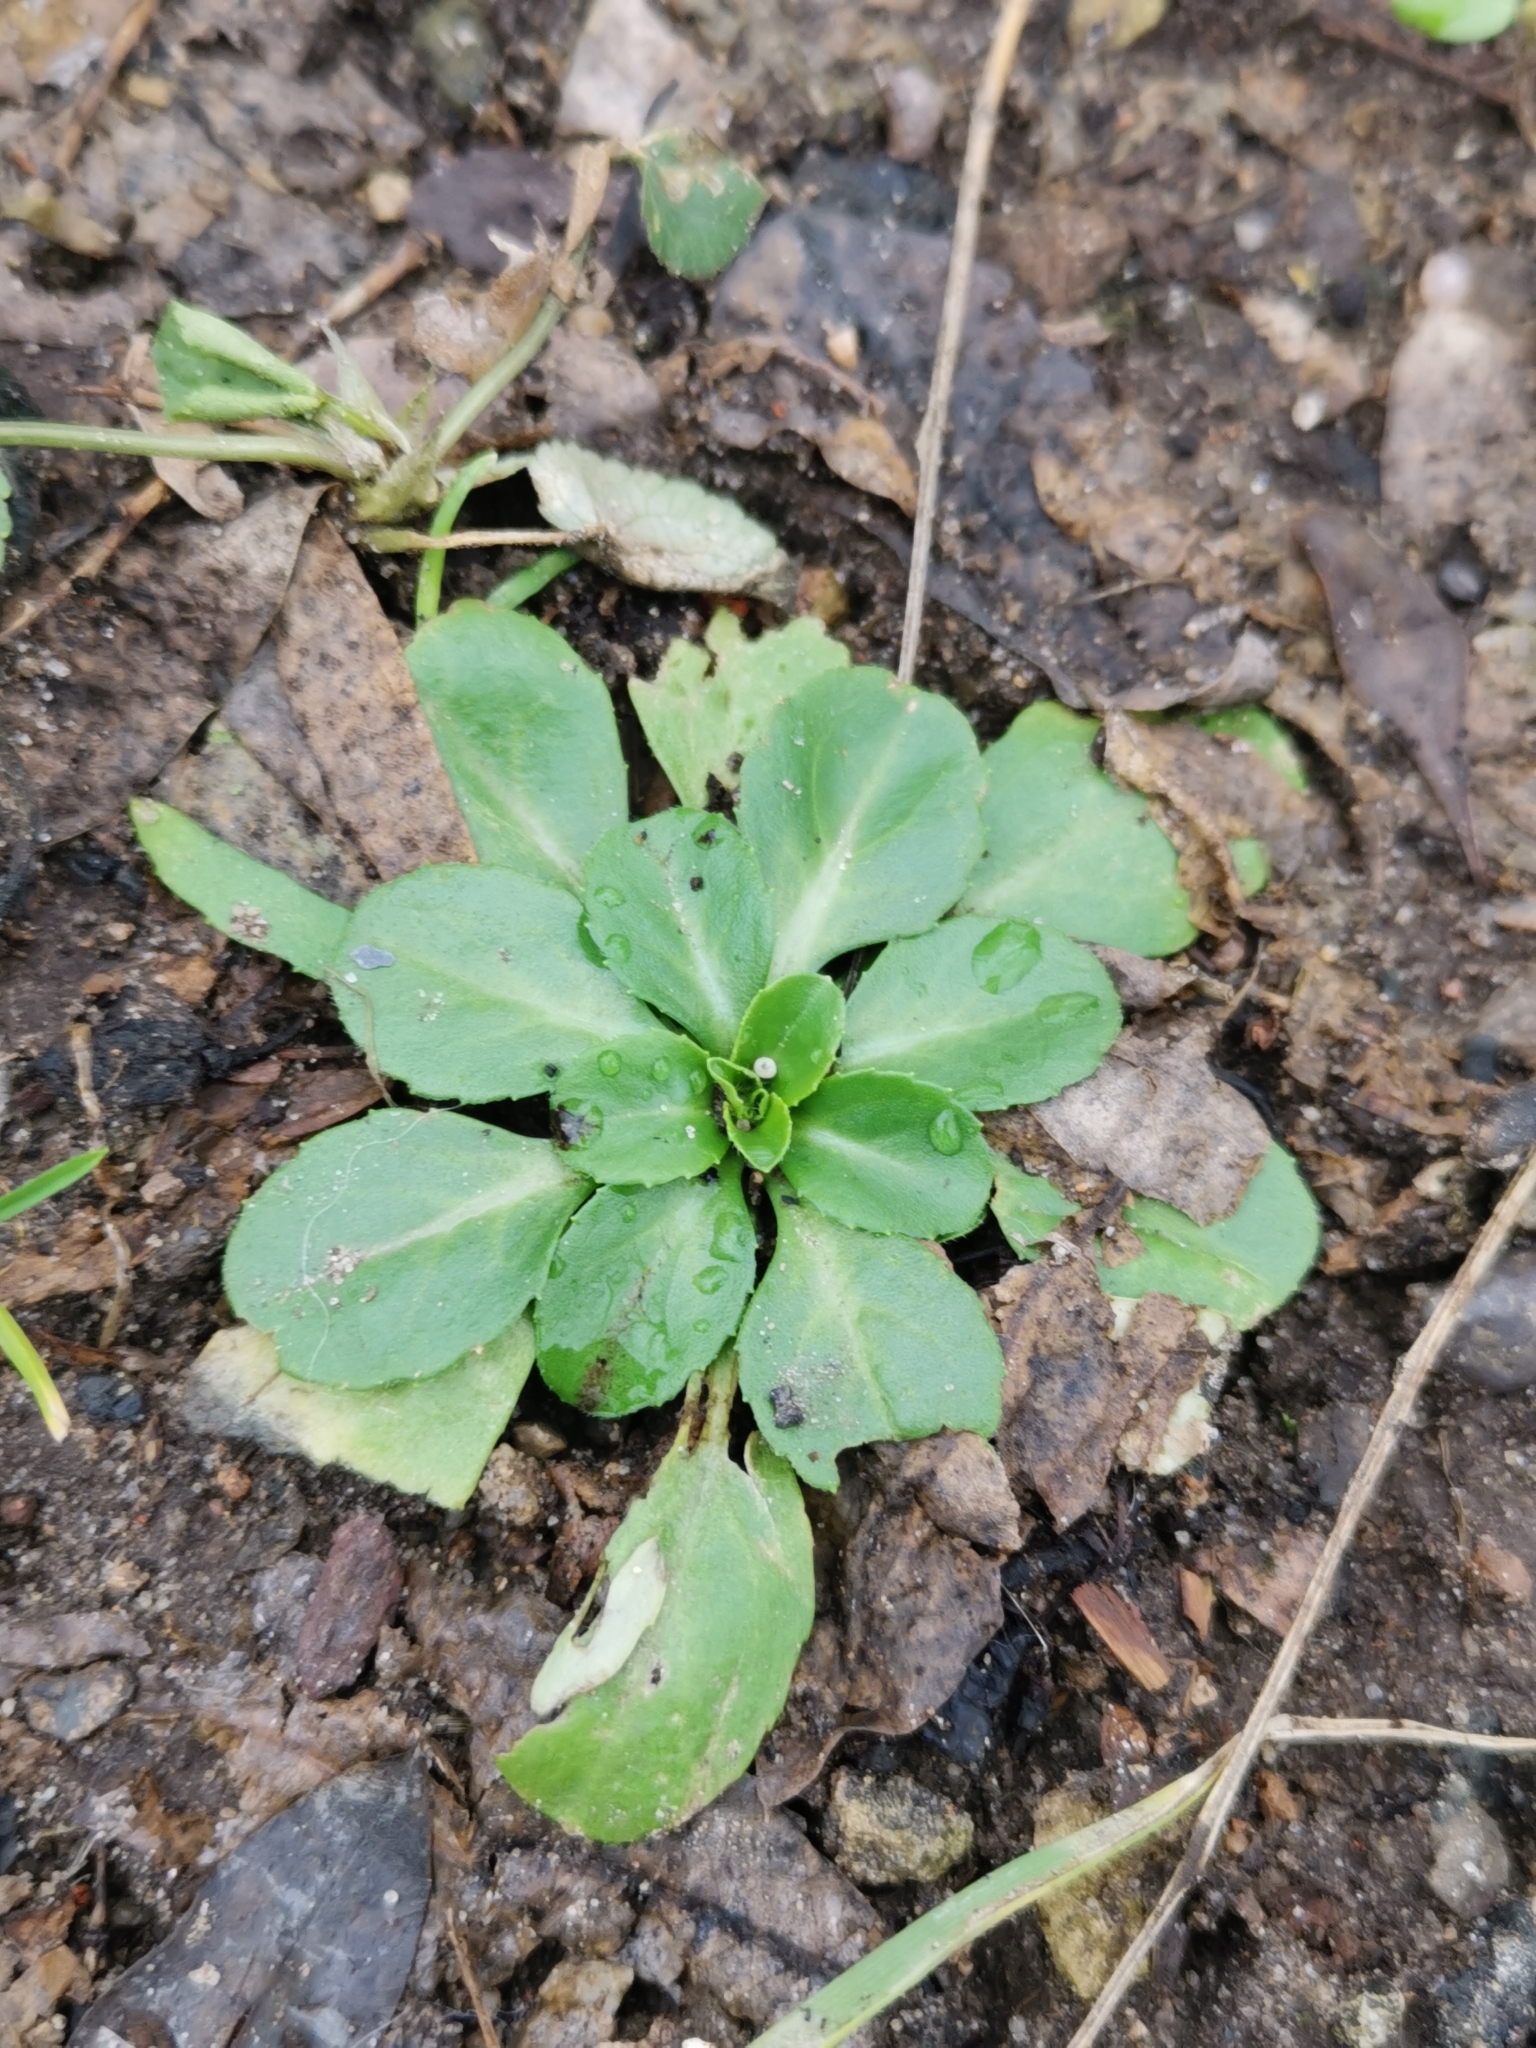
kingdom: Plantae
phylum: Tracheophyta
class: Magnoliopsida
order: Asterales
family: Asteraceae
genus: Bellis
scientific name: Bellis perennis
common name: Lawndaisy
